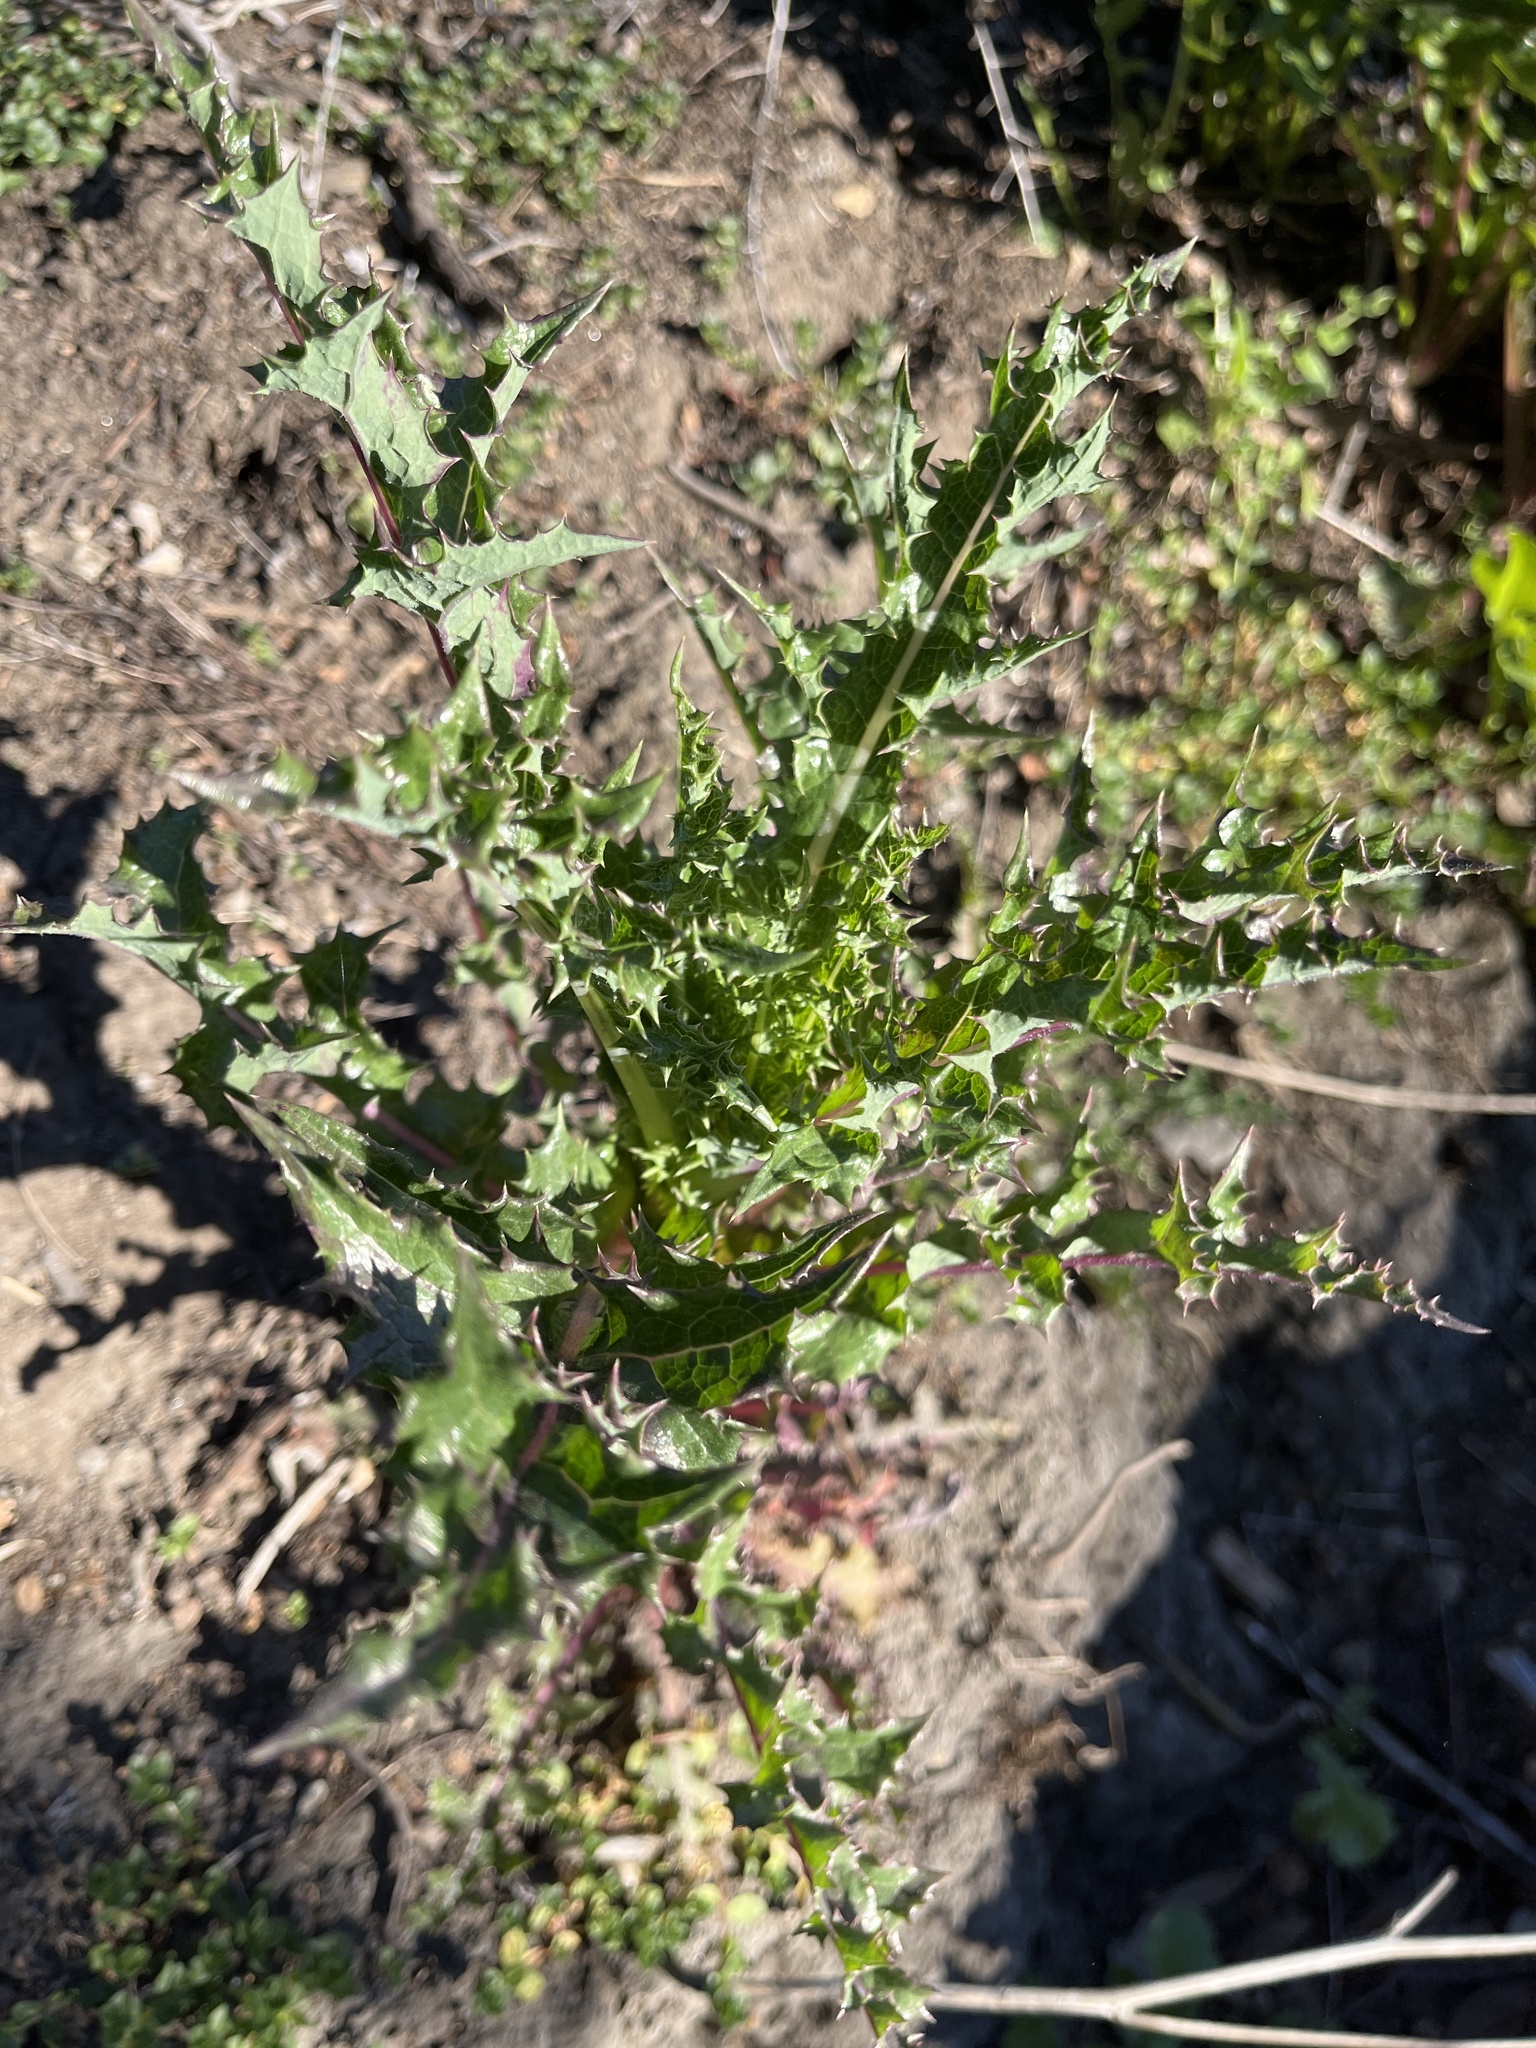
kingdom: Plantae
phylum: Tracheophyta
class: Magnoliopsida
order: Asterales
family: Asteraceae
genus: Sonchus
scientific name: Sonchus asper
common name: Prickly sow-thistle
